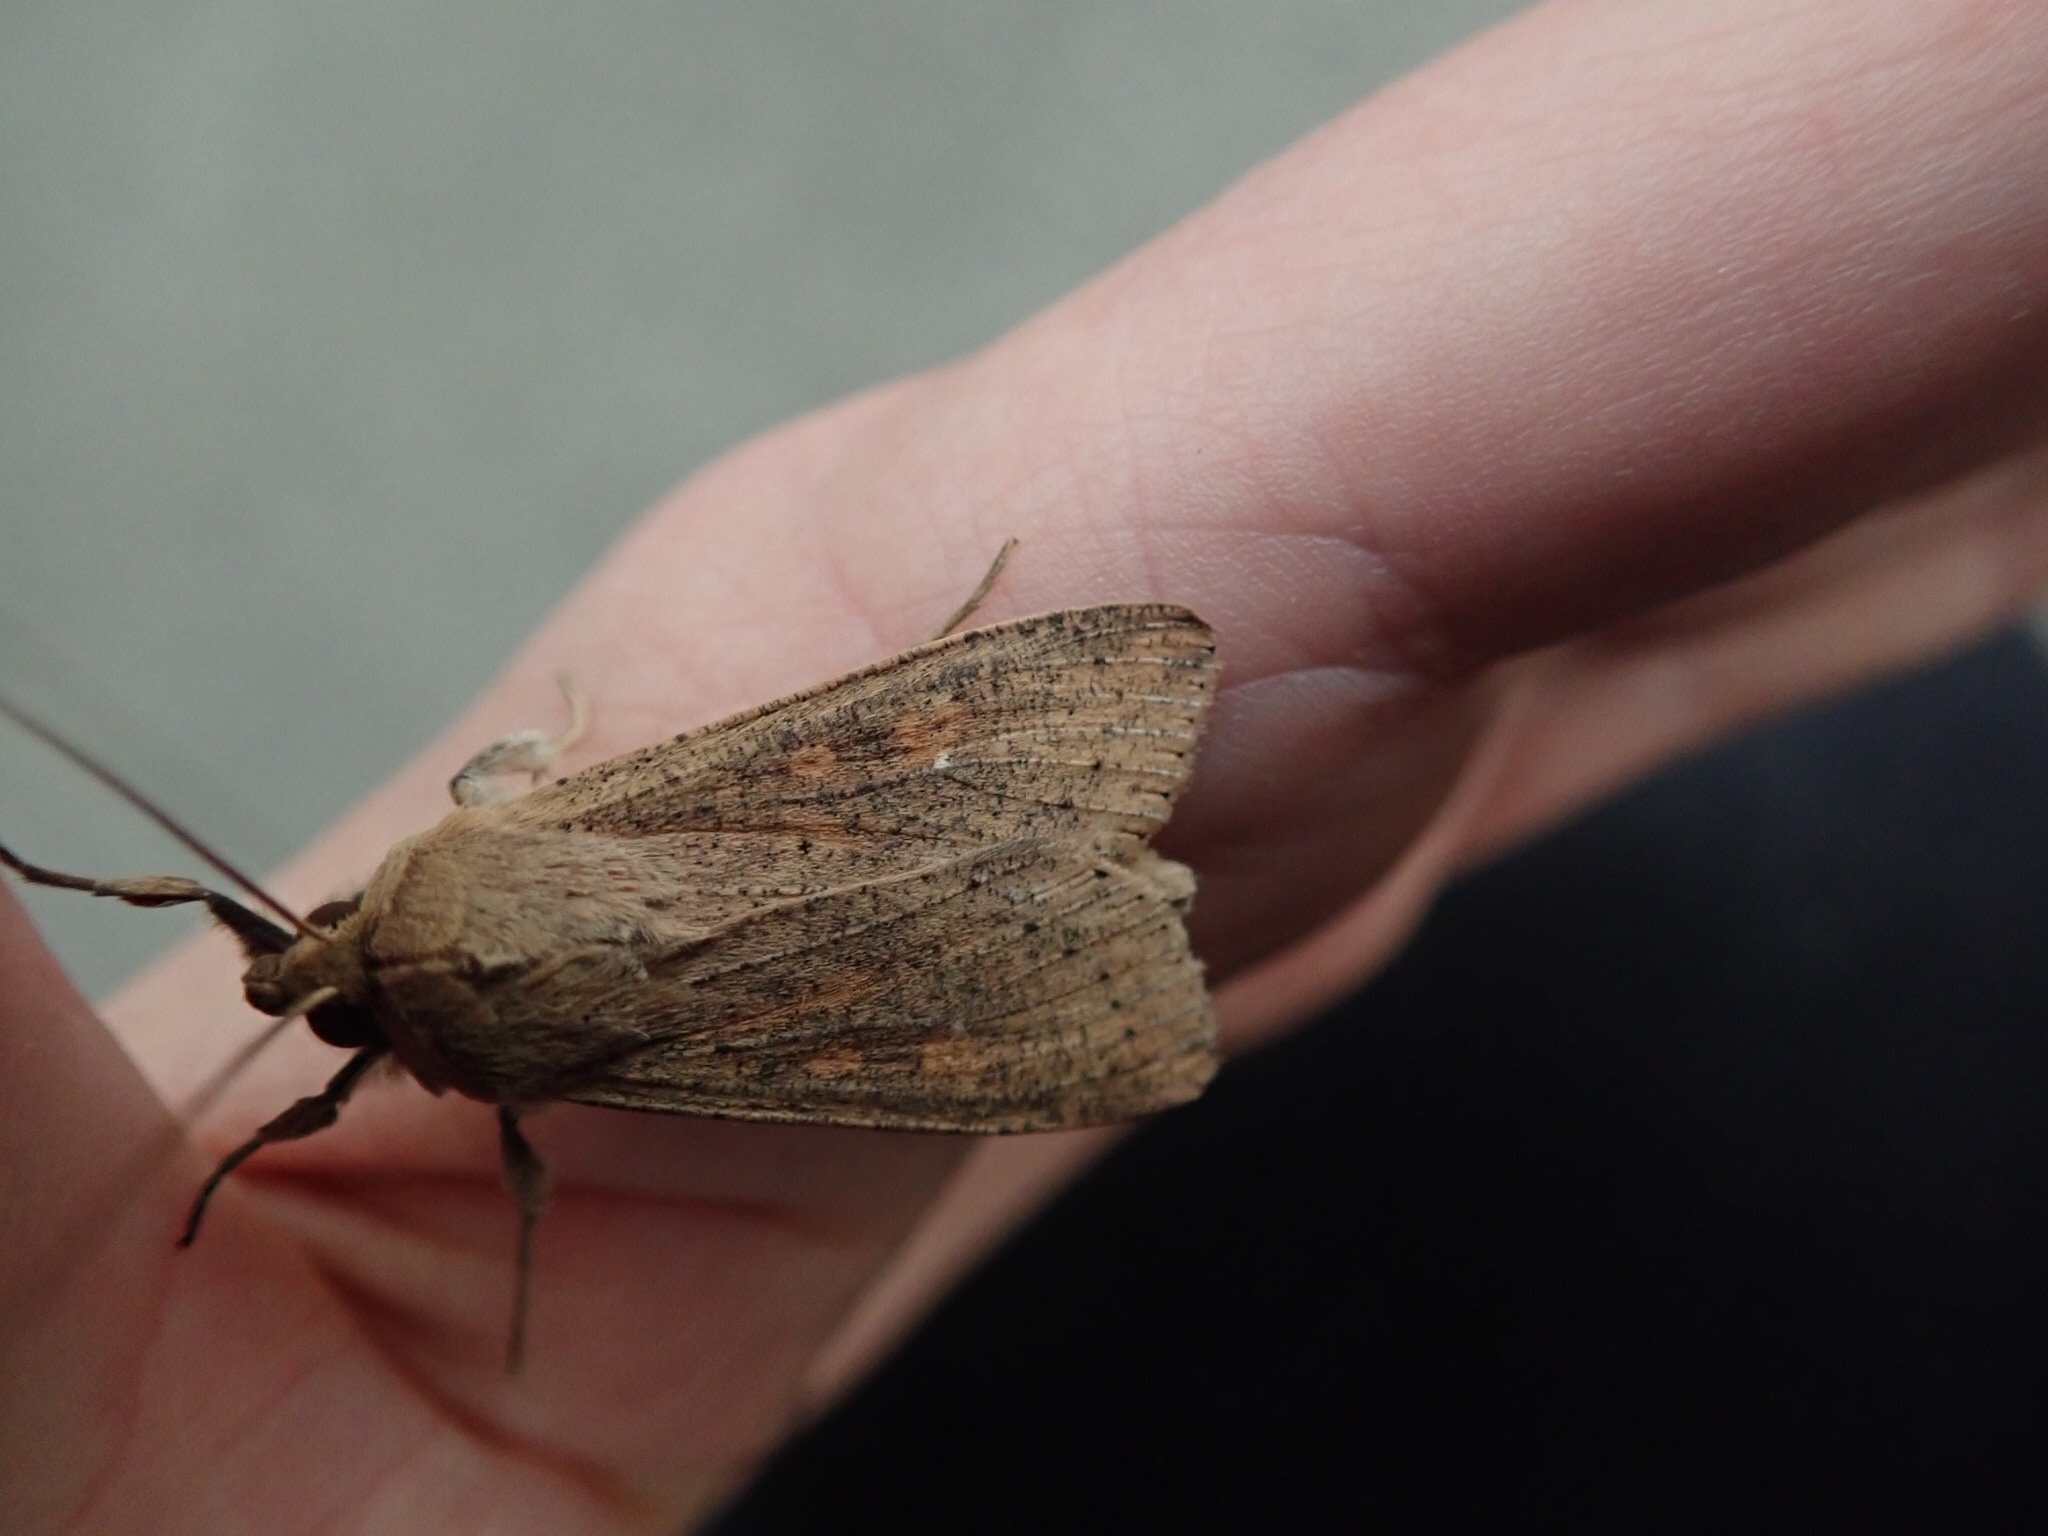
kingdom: Animalia
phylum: Arthropoda
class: Insecta
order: Lepidoptera
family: Noctuidae
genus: Mythimna
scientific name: Mythimna separata
